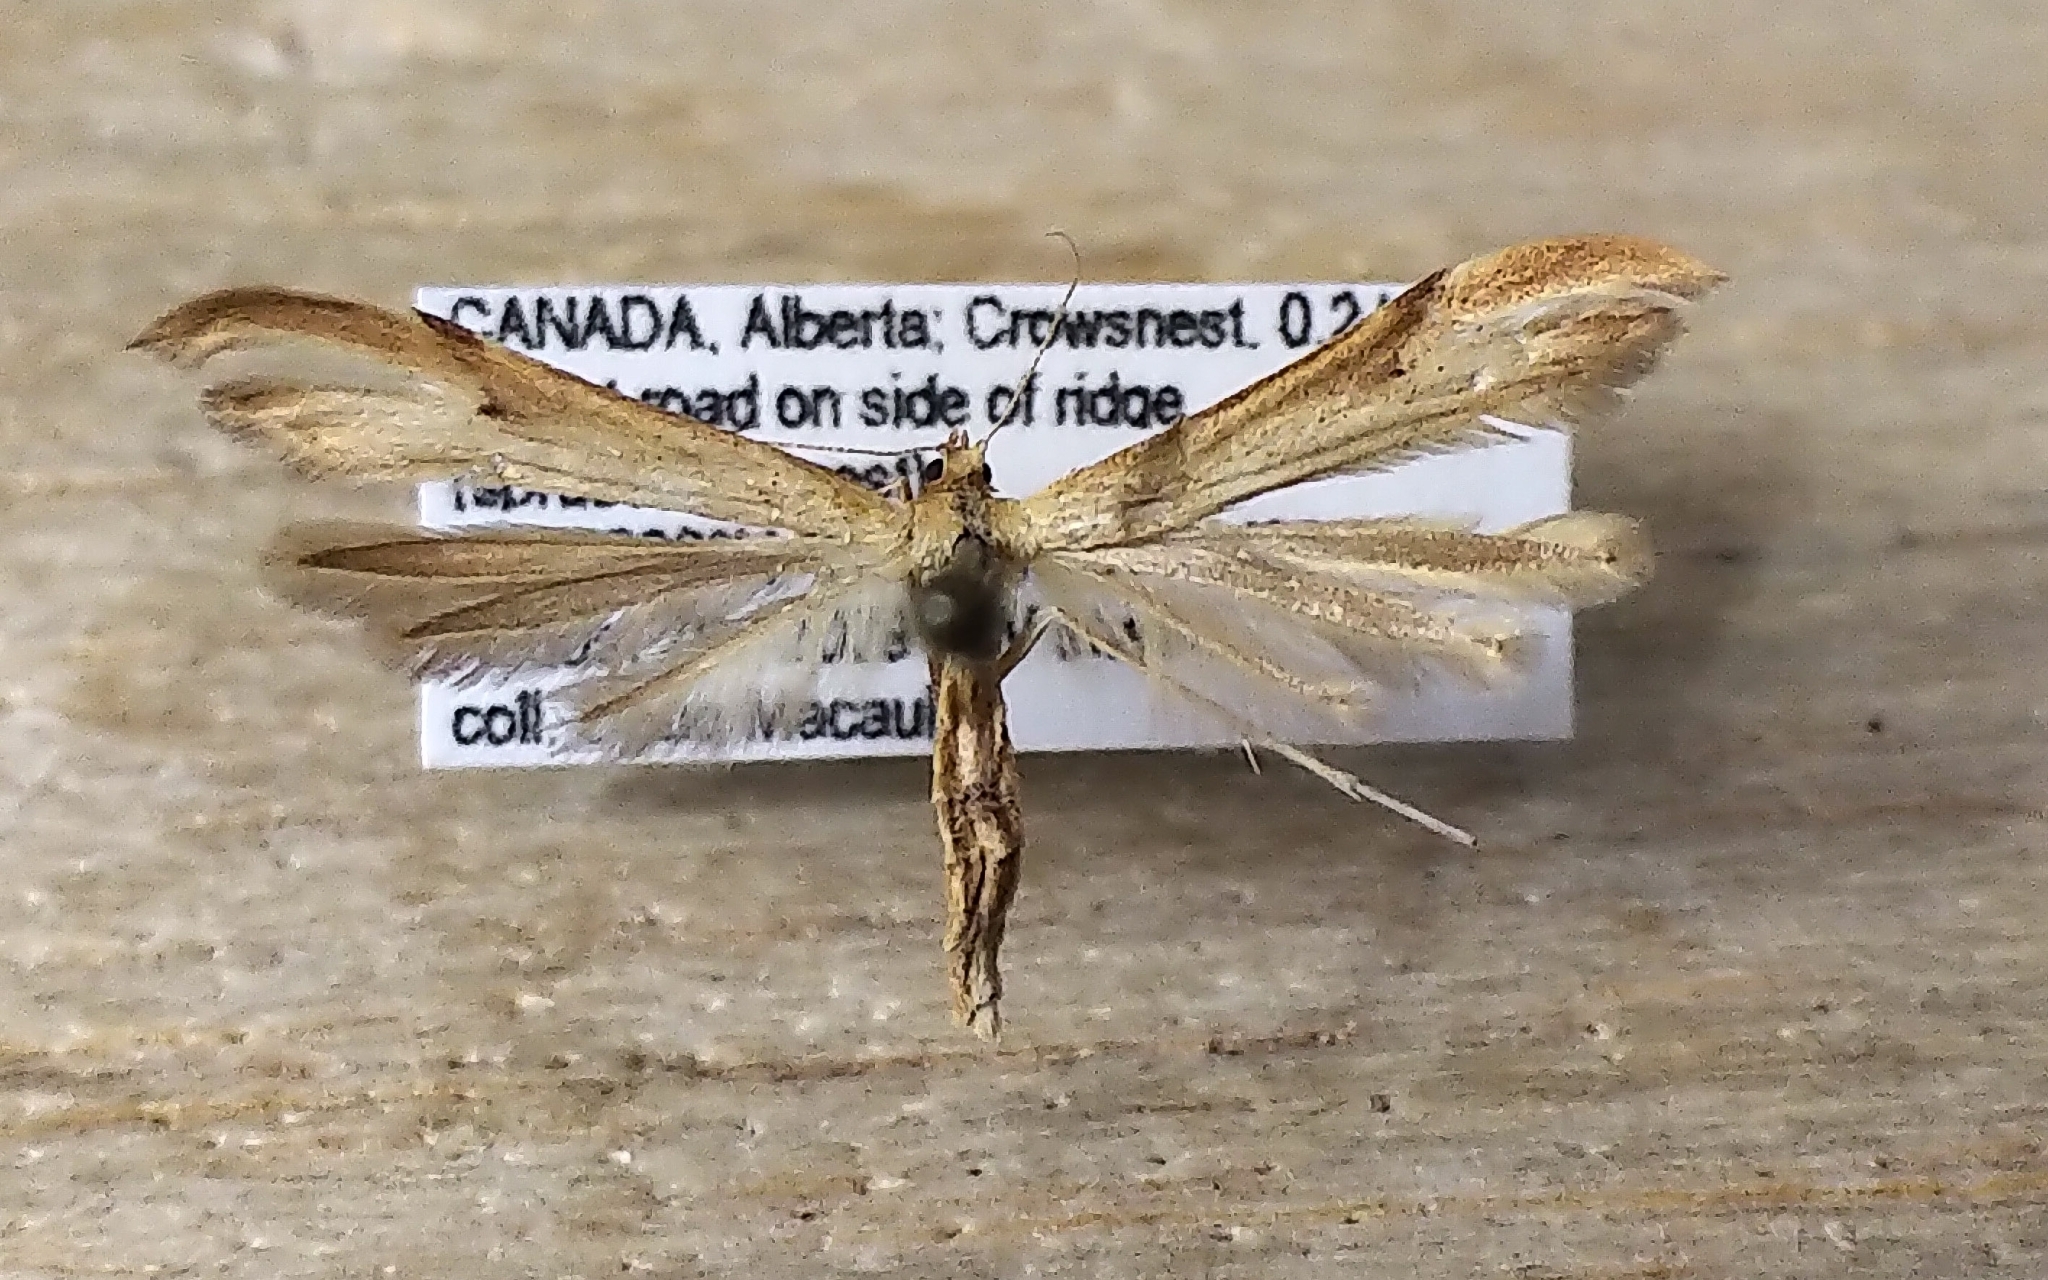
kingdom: Animalia
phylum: Arthropoda
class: Insecta
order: Lepidoptera
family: Pterophoridae
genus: Oidaematophorus
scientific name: Oidaematophorus balsamorrhizae
